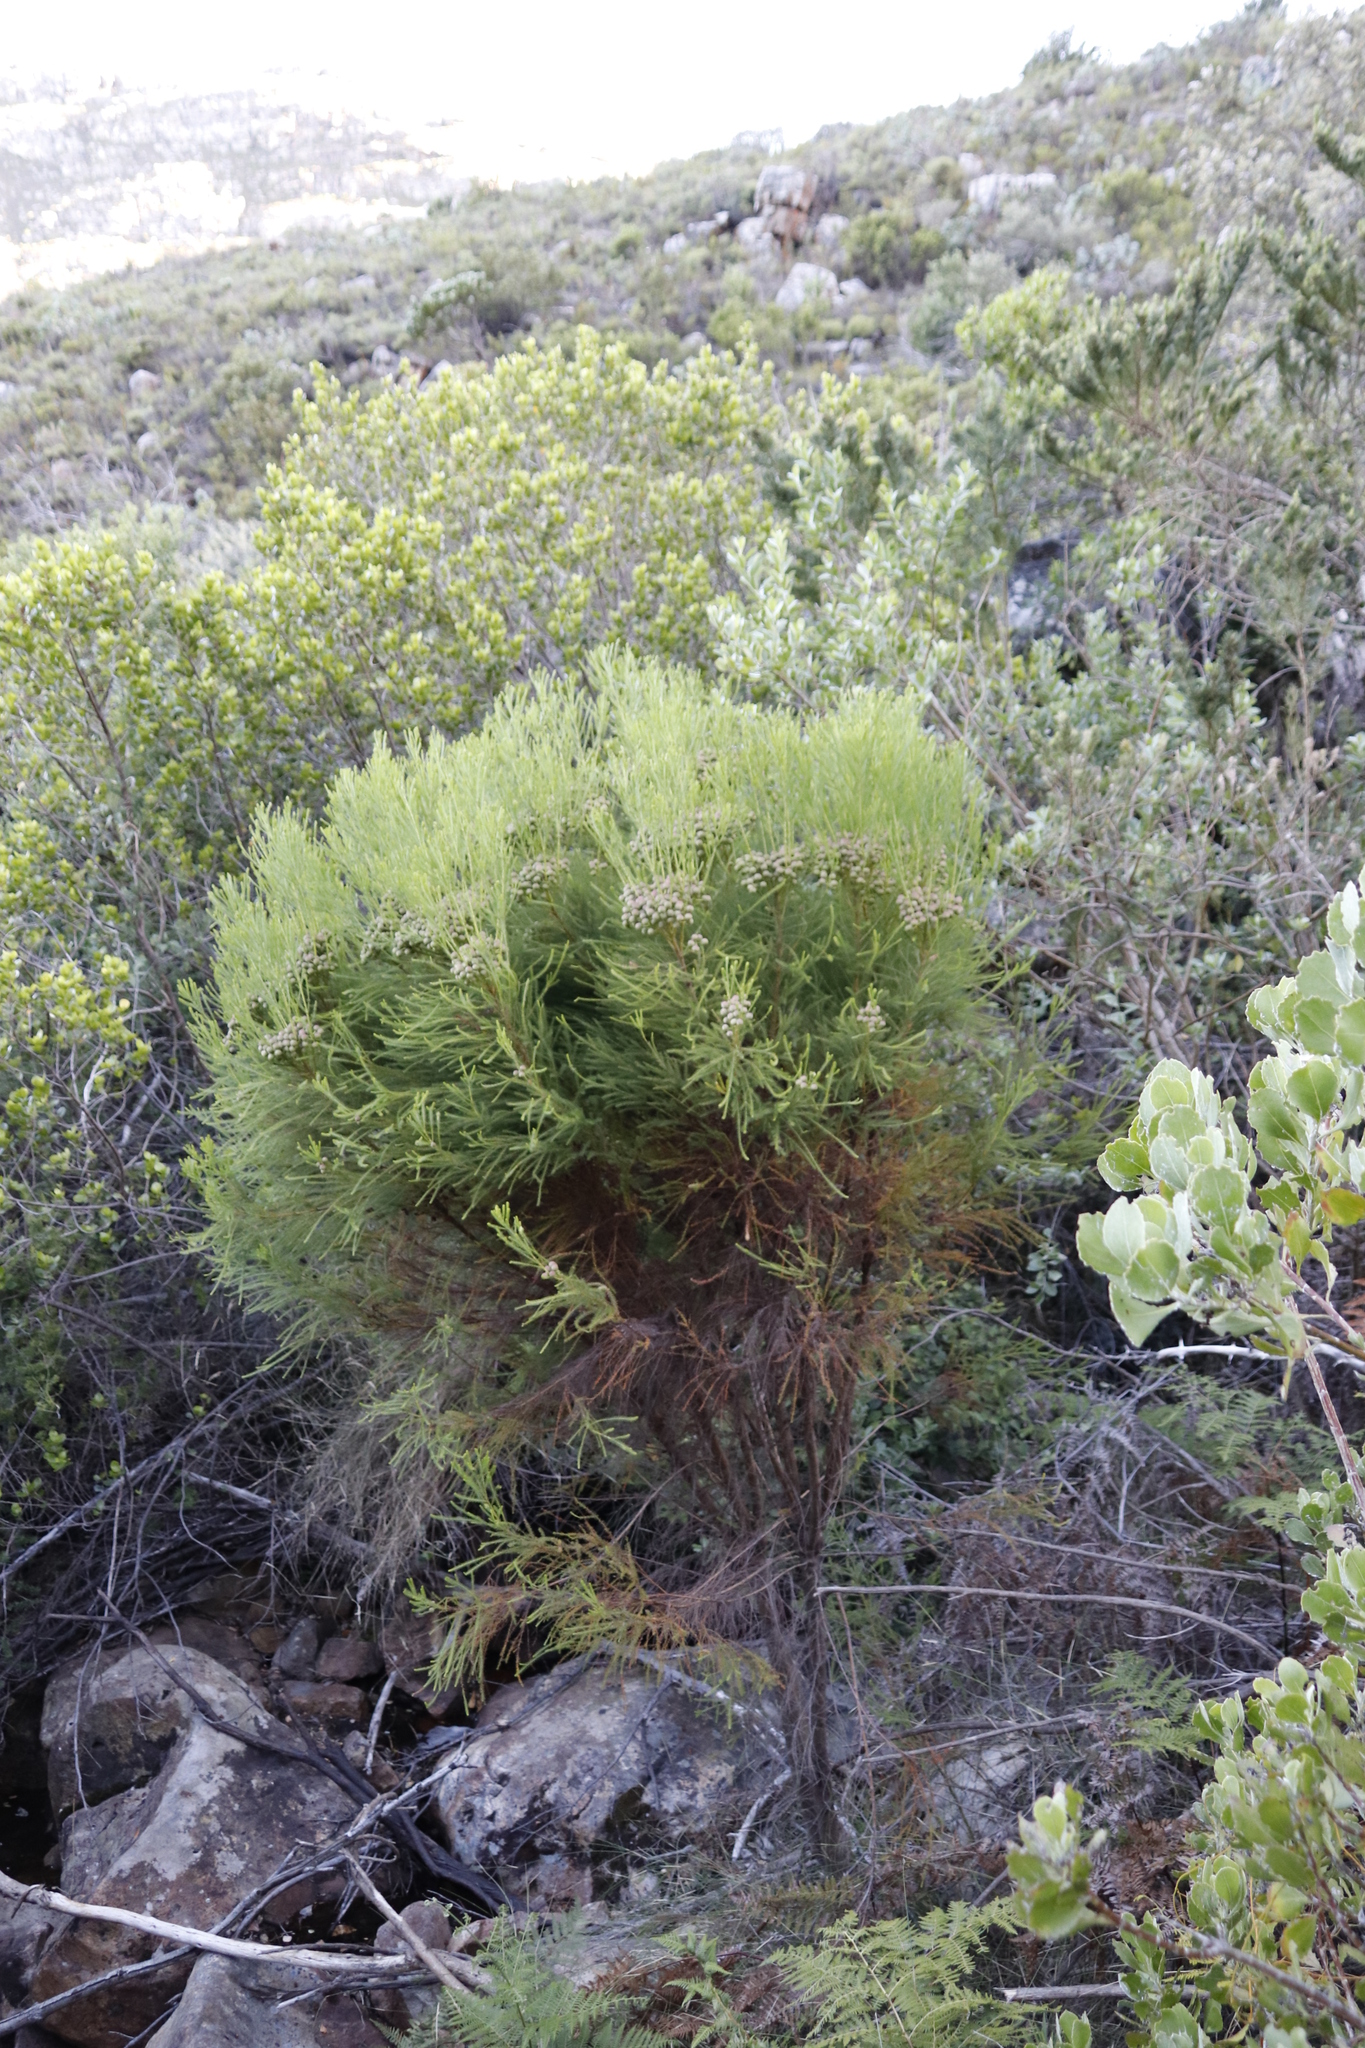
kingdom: Plantae
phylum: Tracheophyta
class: Magnoliopsida
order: Bruniales
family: Bruniaceae
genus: Berzelia
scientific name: Berzelia lanuginosa
